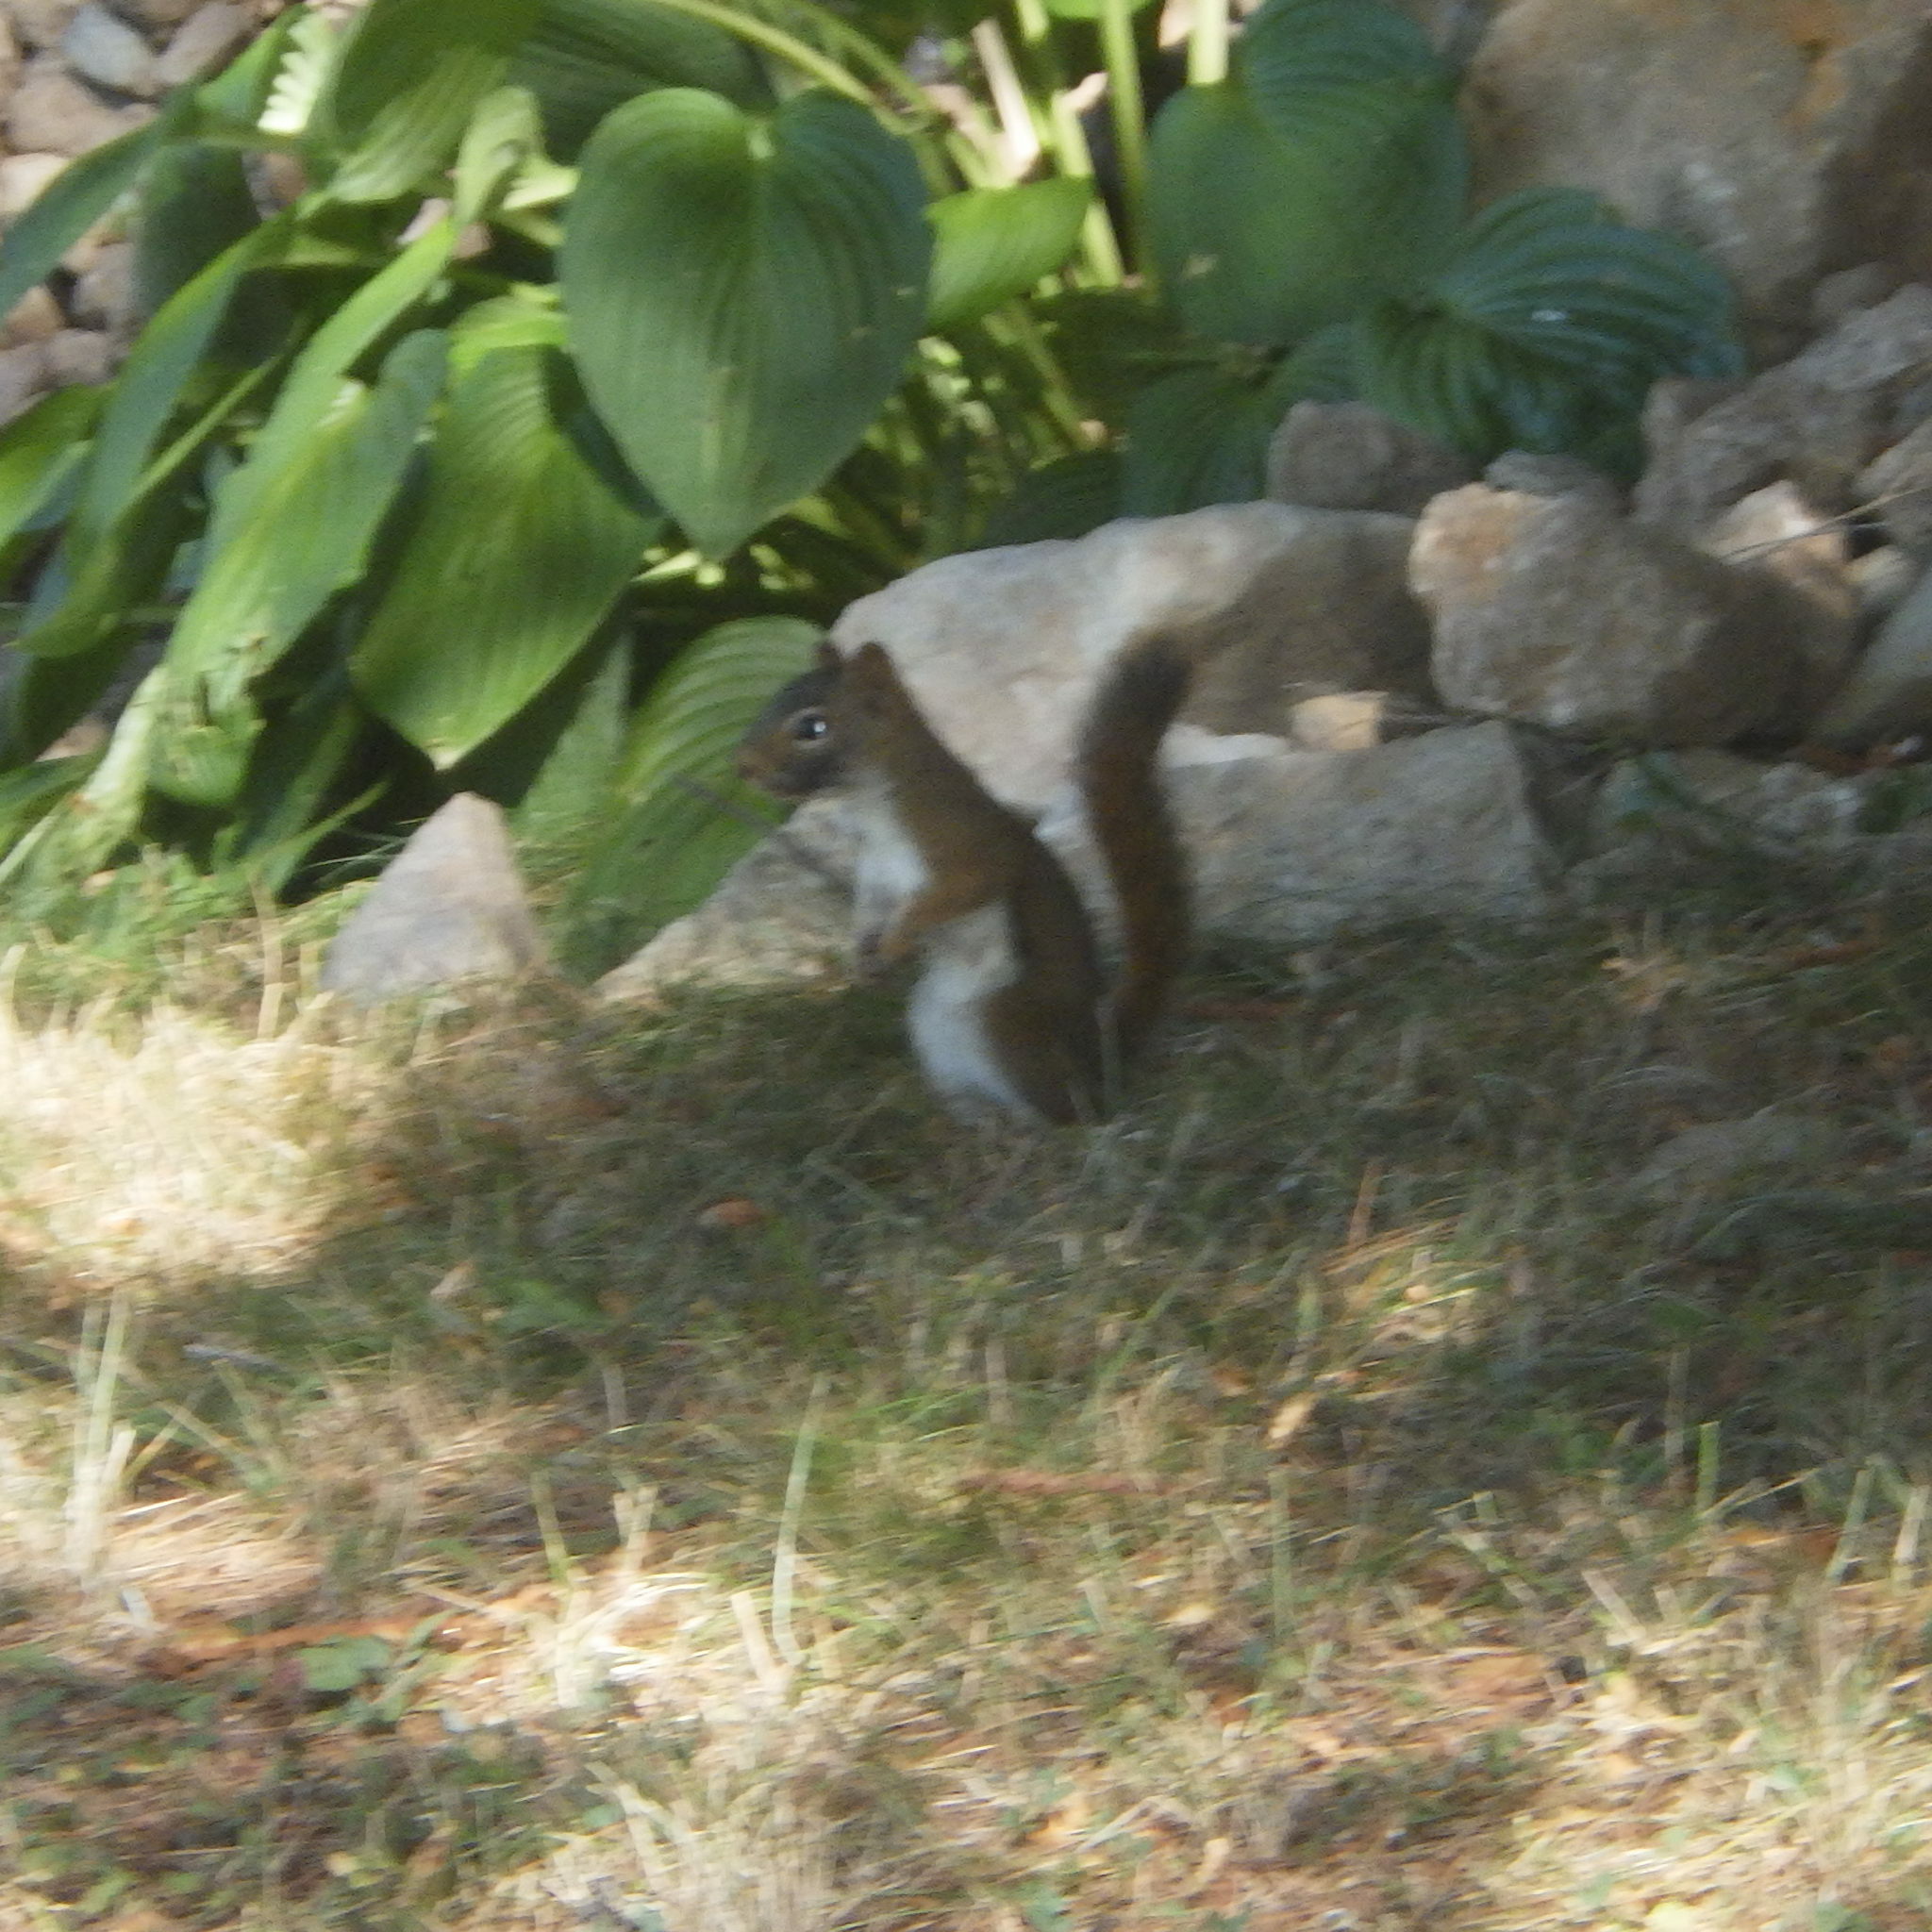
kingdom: Animalia
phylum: Chordata
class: Mammalia
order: Rodentia
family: Sciuridae
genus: Tamiasciurus
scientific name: Tamiasciurus hudsonicus
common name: Red squirrel
